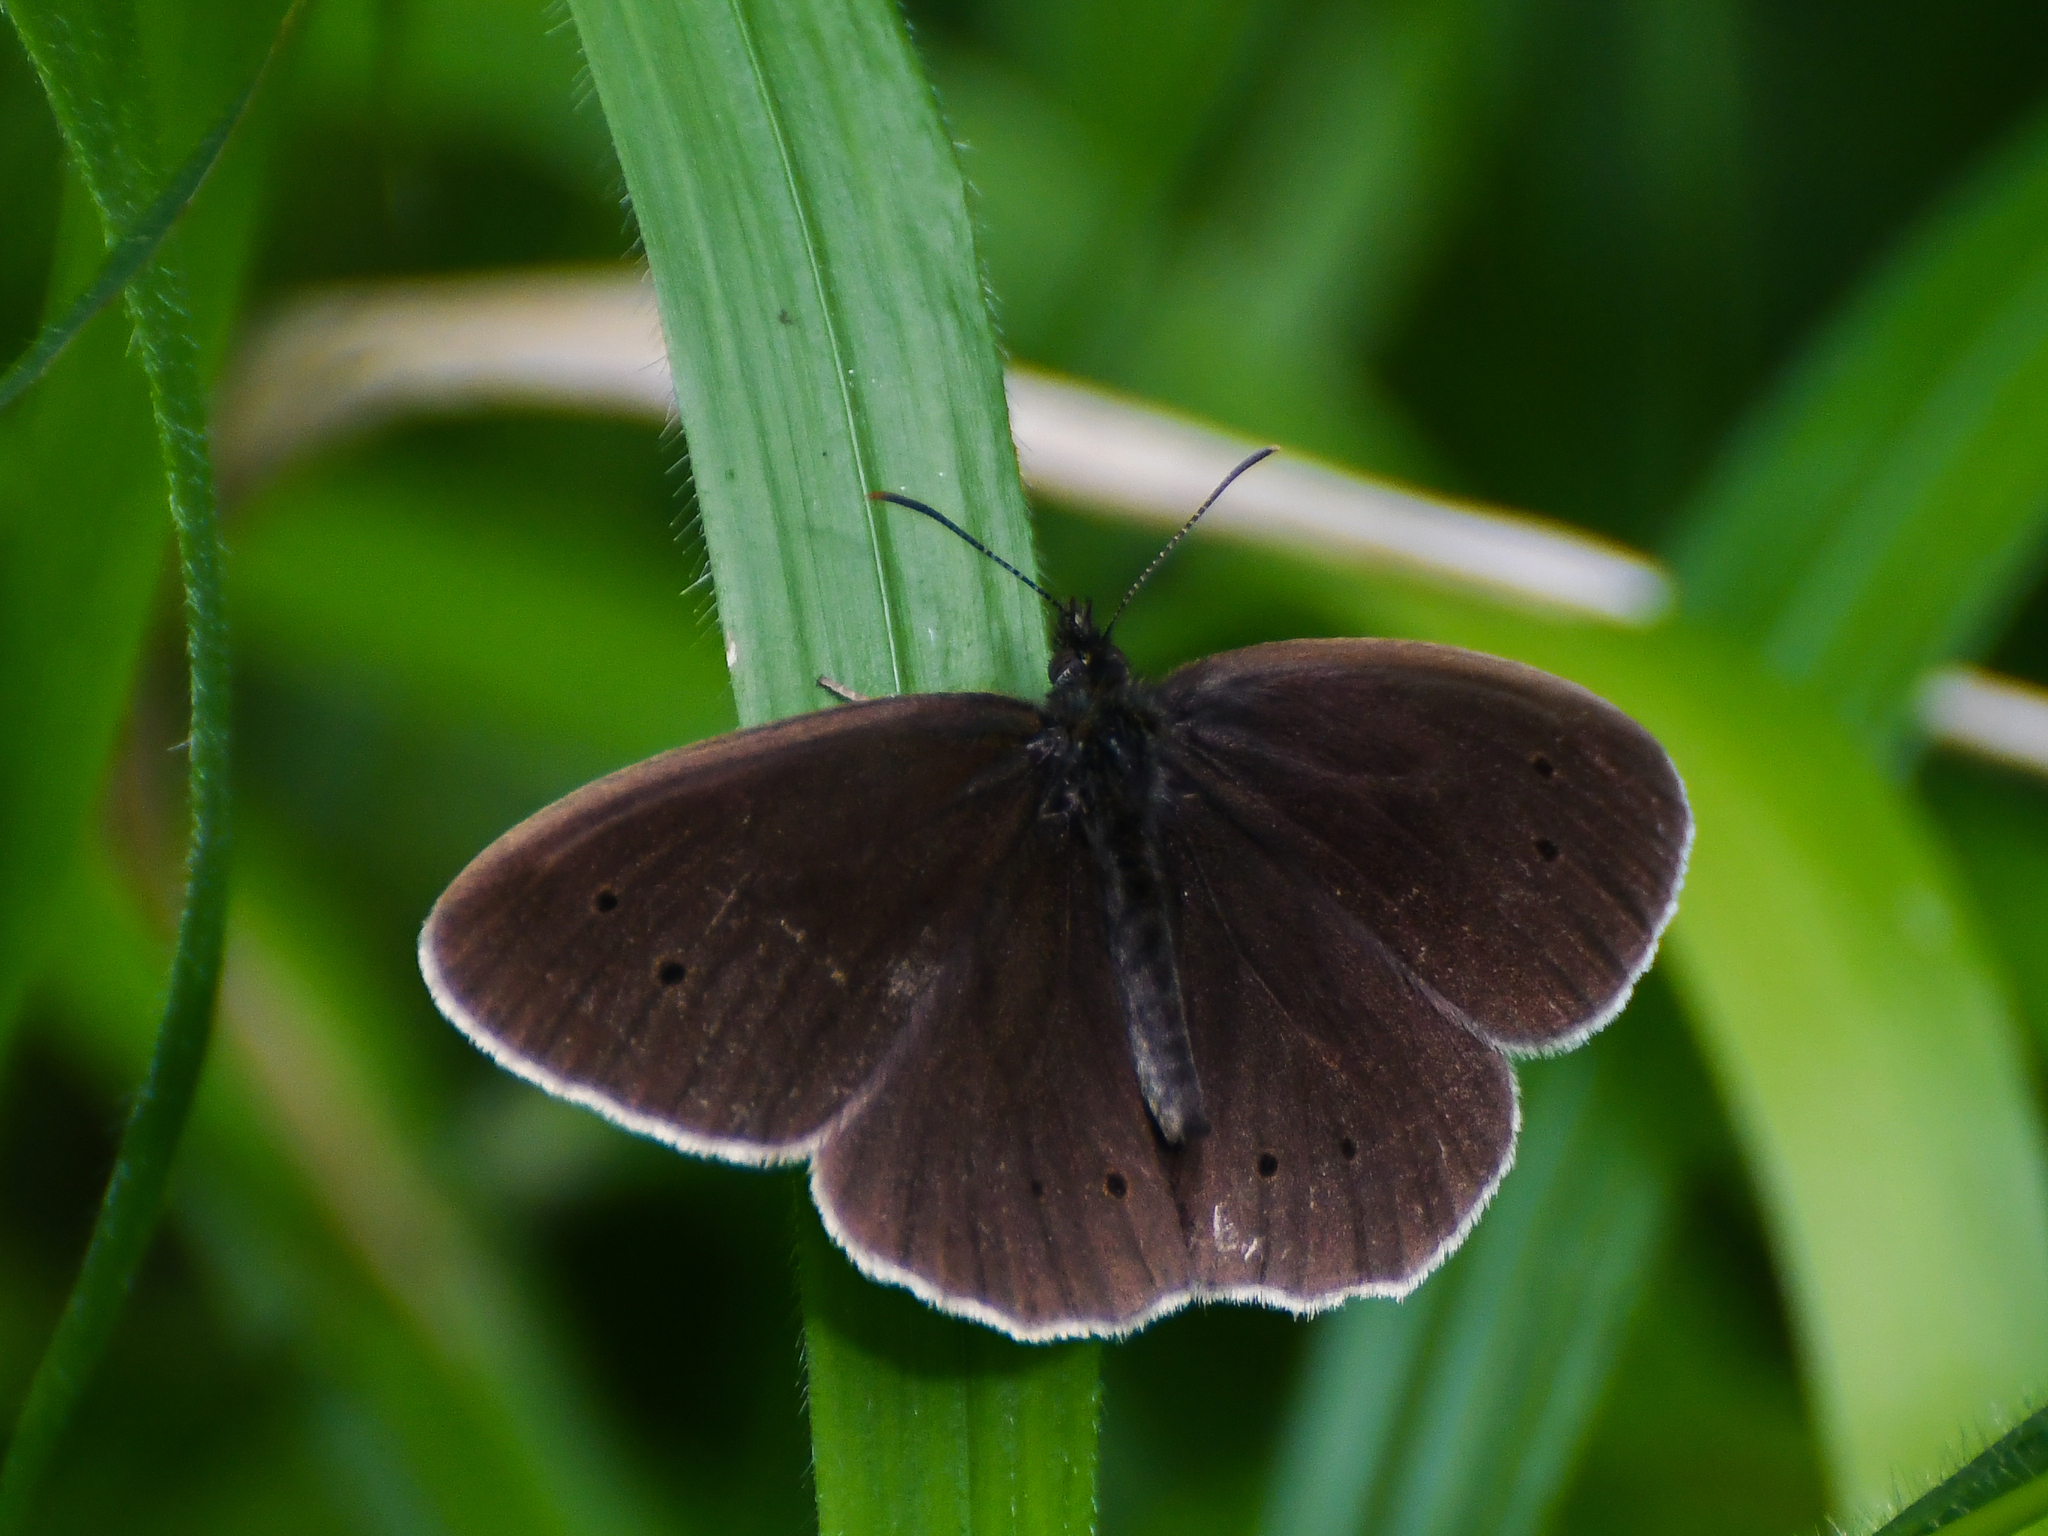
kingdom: Animalia
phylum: Arthropoda
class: Insecta
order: Lepidoptera
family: Nymphalidae
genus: Aphantopus
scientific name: Aphantopus hyperantus
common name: Ringlet
